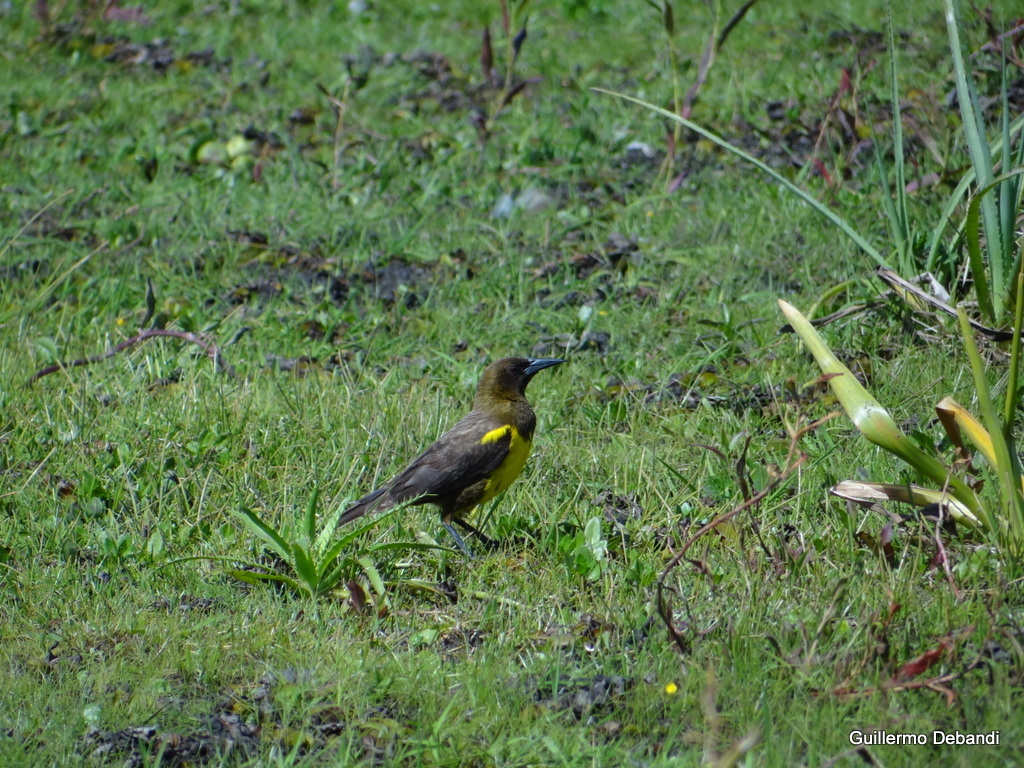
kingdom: Animalia
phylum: Chordata
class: Aves
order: Passeriformes
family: Icteridae
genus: Pseudoleistes
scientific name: Pseudoleistes guirahuro
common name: Yellow-rumped marshbird
